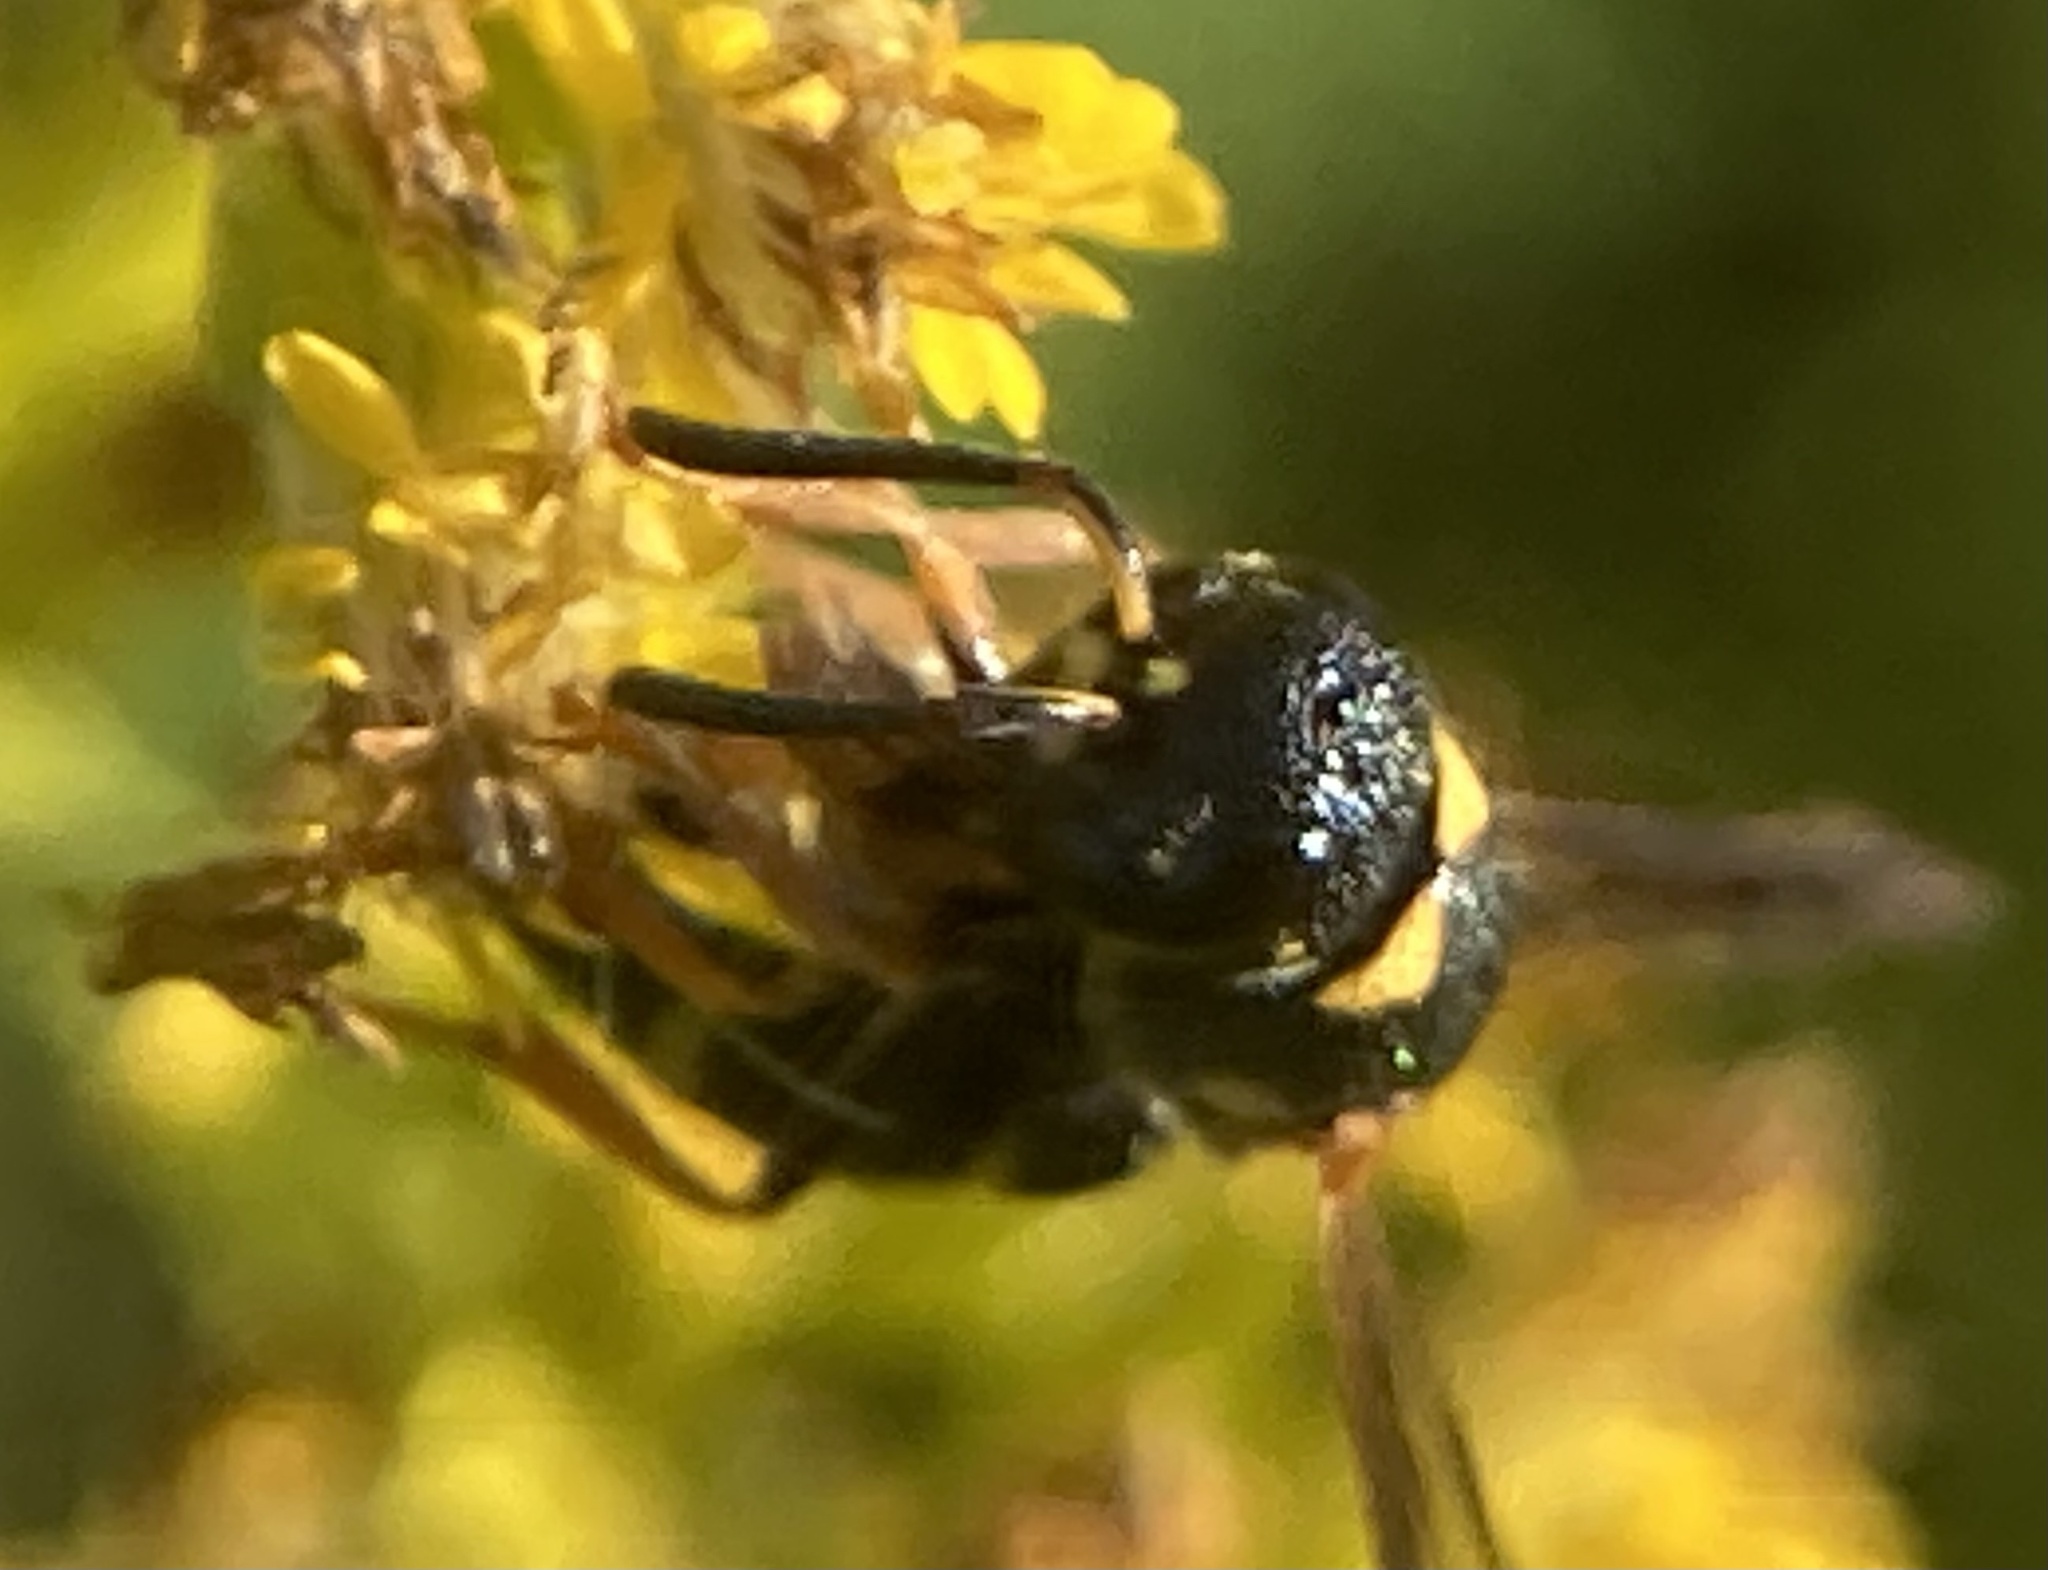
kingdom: Animalia
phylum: Arthropoda
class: Insecta
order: Hymenoptera
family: Eumenidae
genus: Parancistrocerus
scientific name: Parancistrocerus perennis
